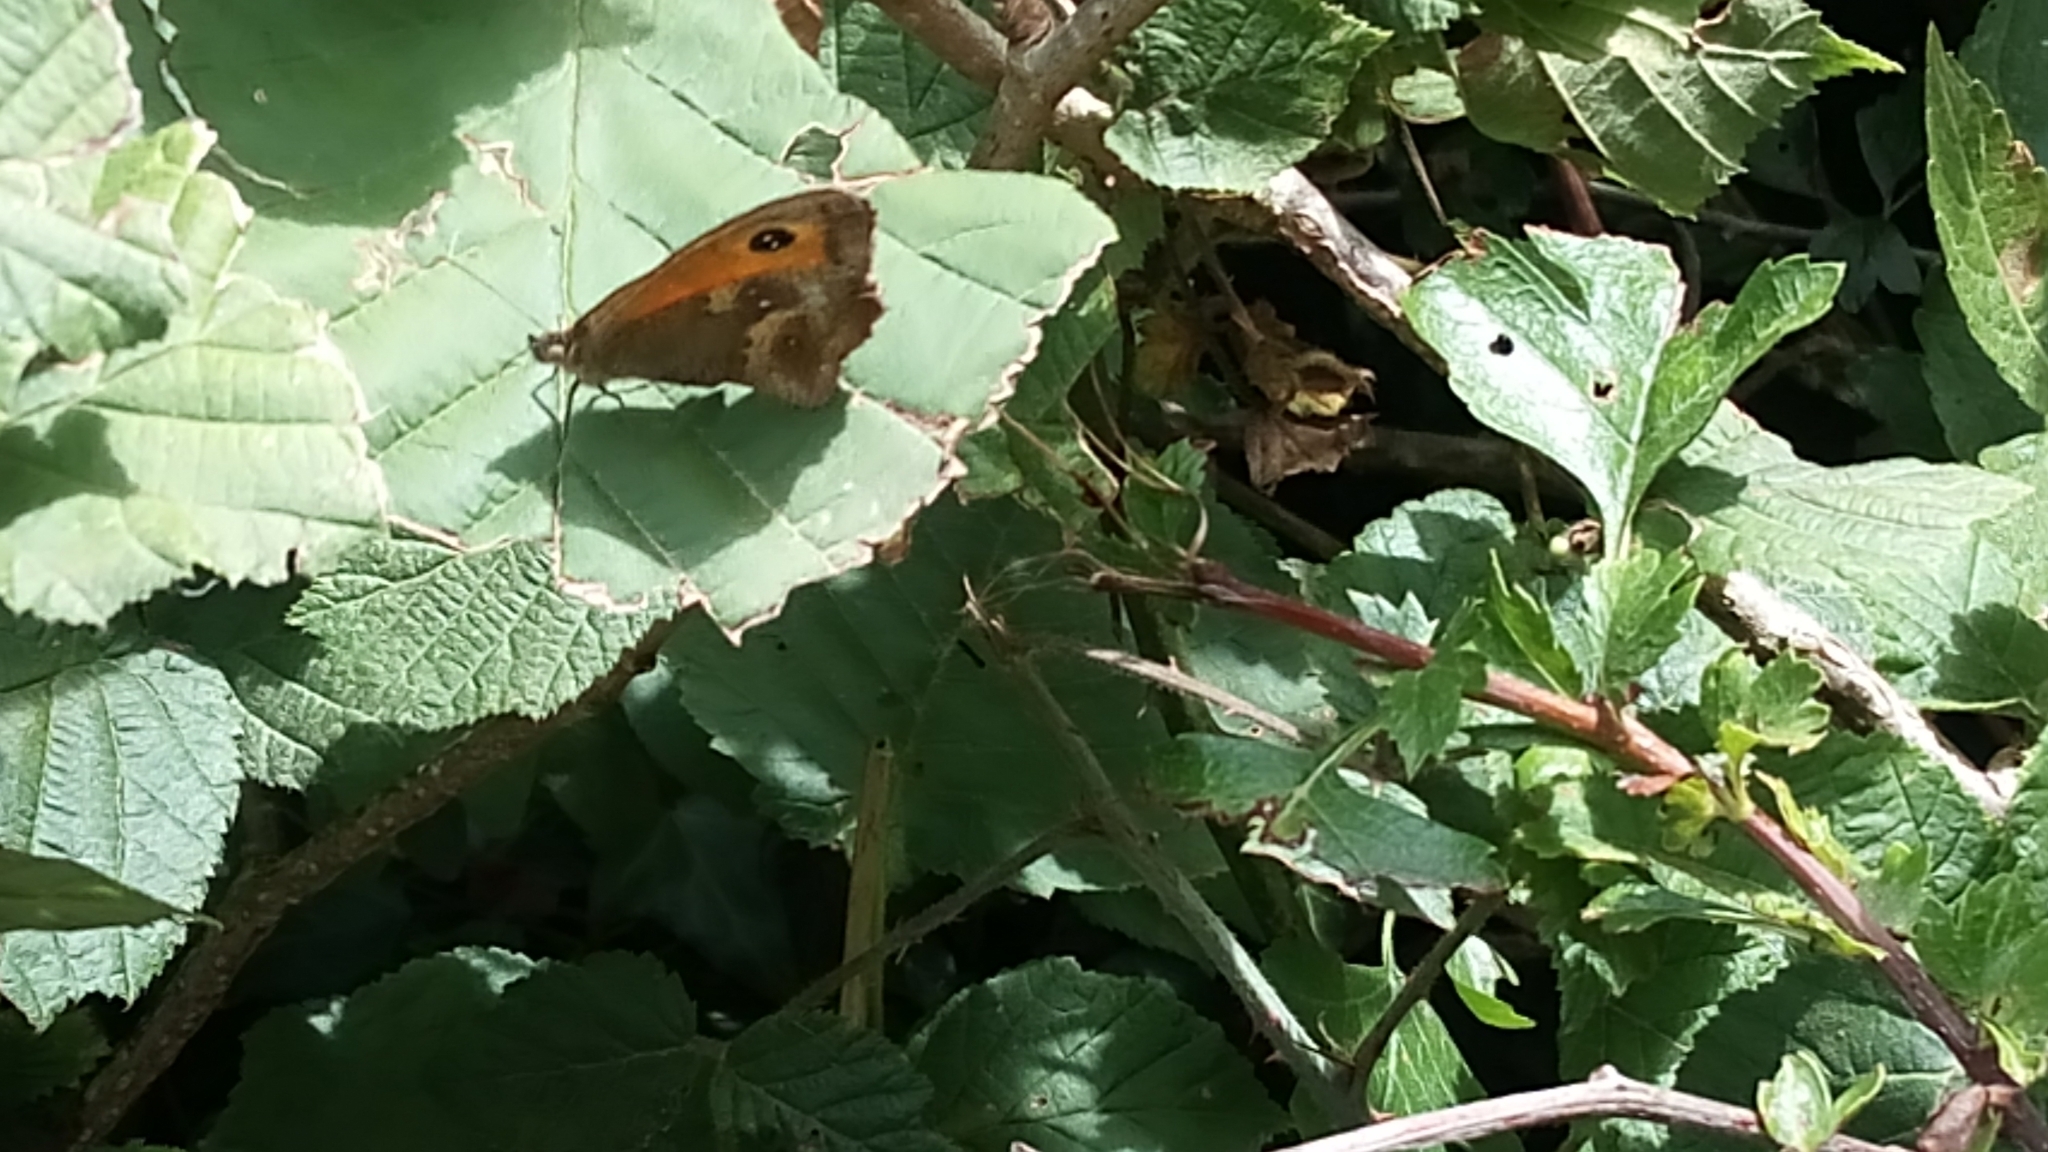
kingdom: Animalia
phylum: Arthropoda
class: Insecta
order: Lepidoptera
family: Nymphalidae
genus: Pyronia
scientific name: Pyronia tithonus
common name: Gatekeeper
